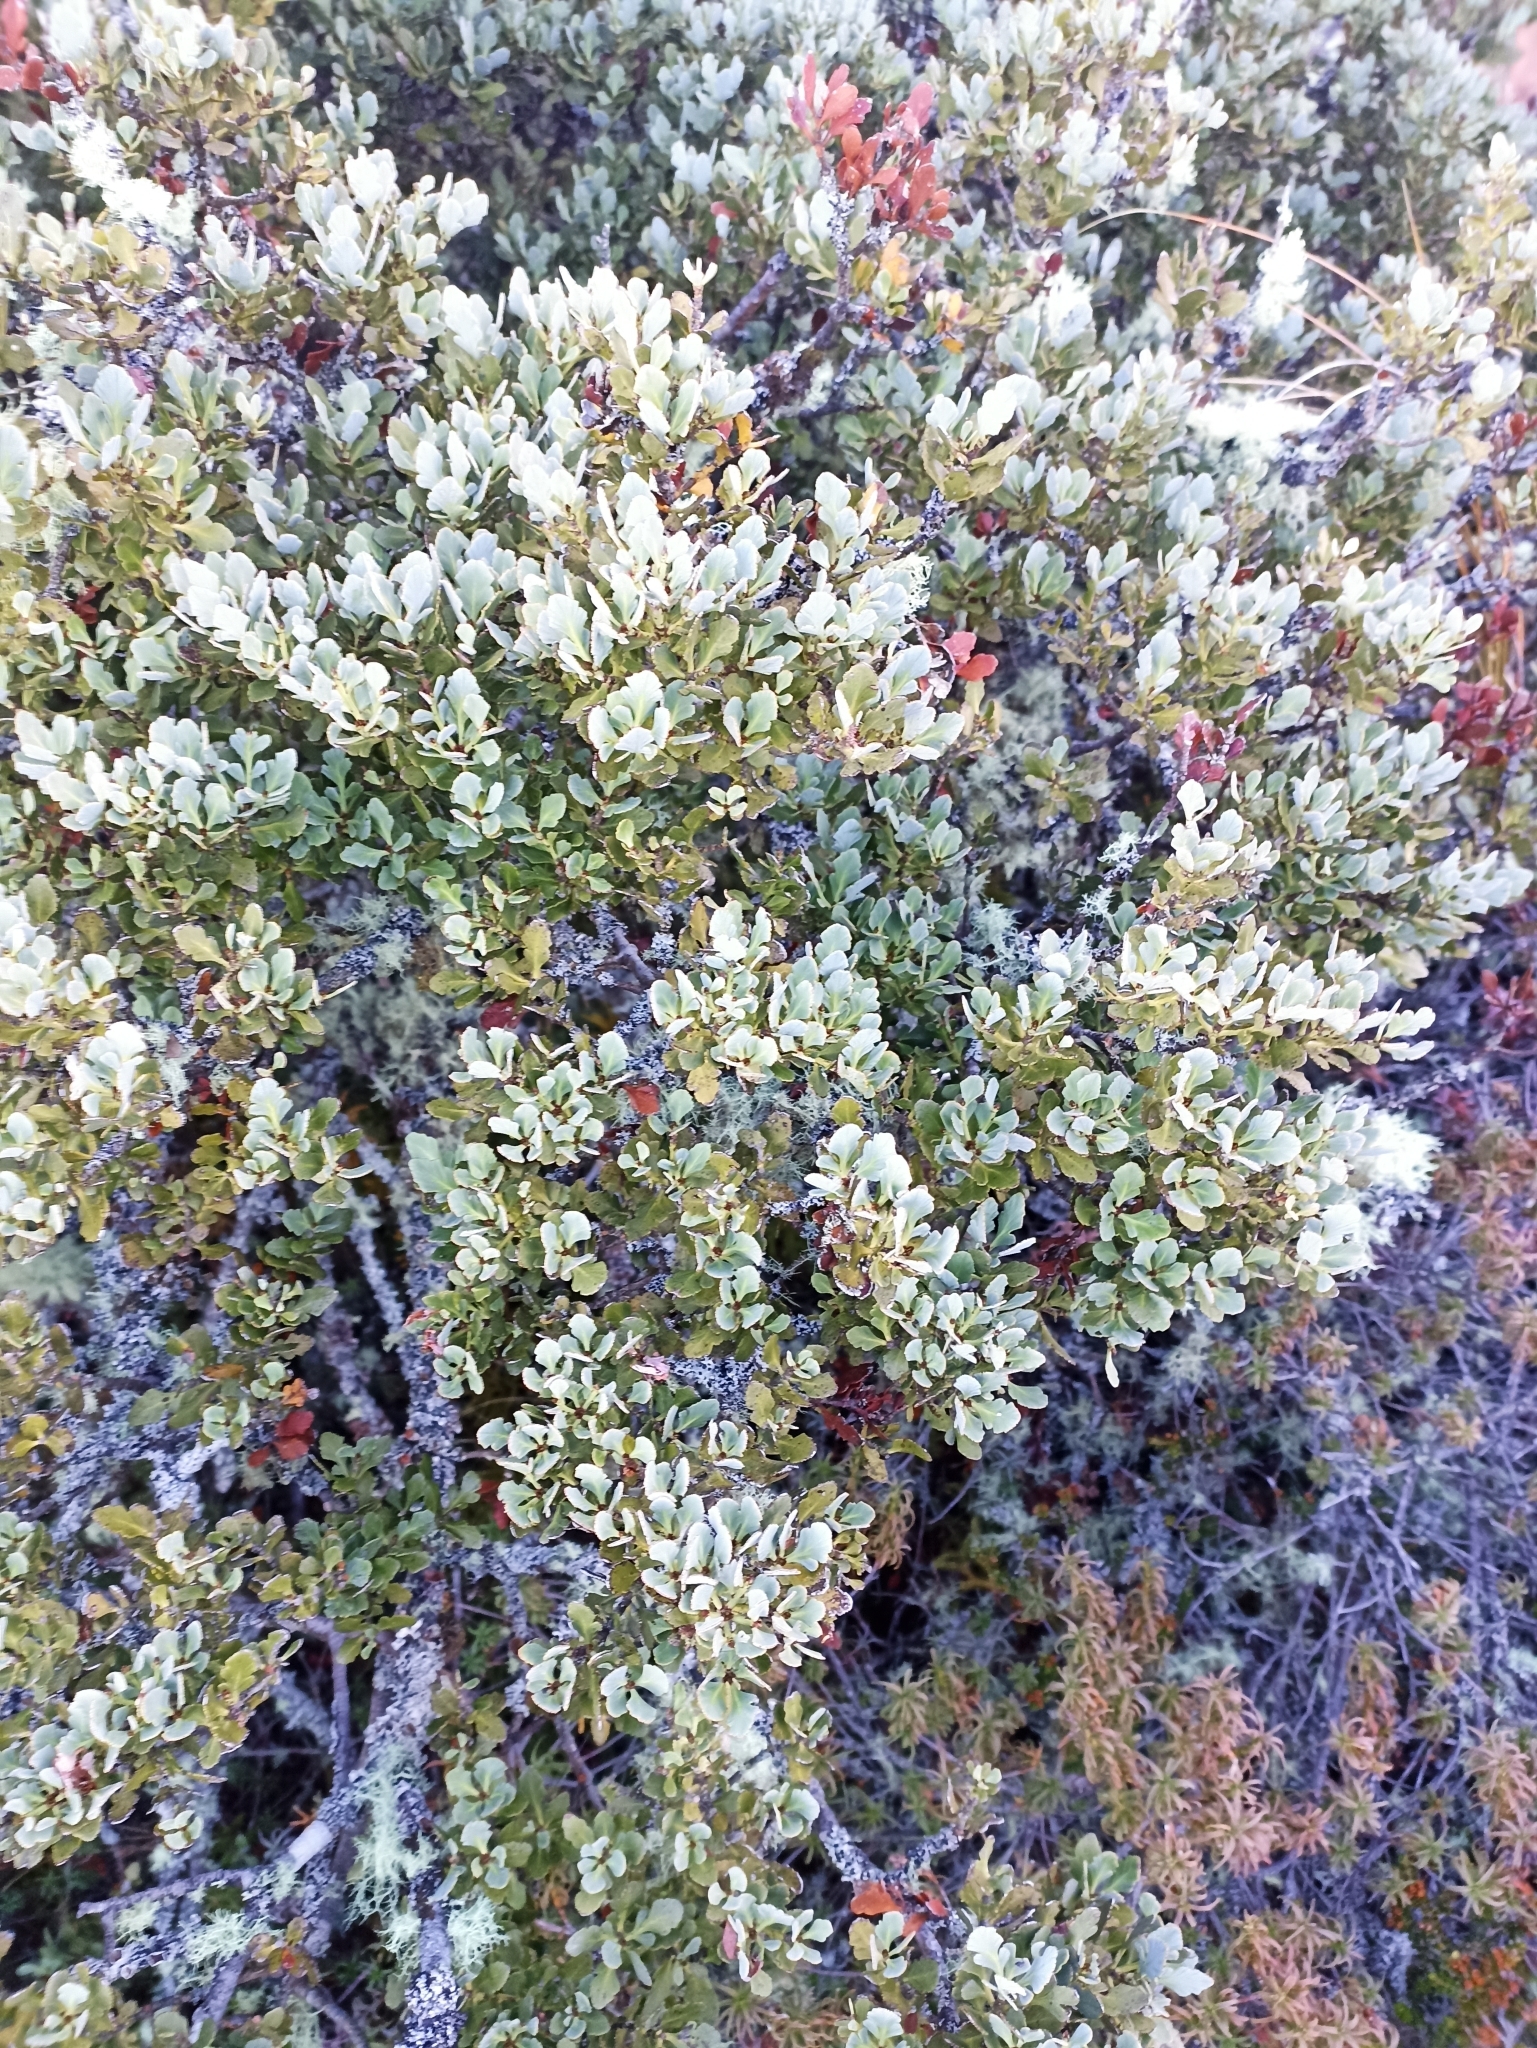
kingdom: Plantae
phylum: Tracheophyta
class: Pinopsida
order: Pinales
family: Phyllocladaceae
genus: Phyllocladus
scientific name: Phyllocladus trichomanoides
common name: Celery pine
